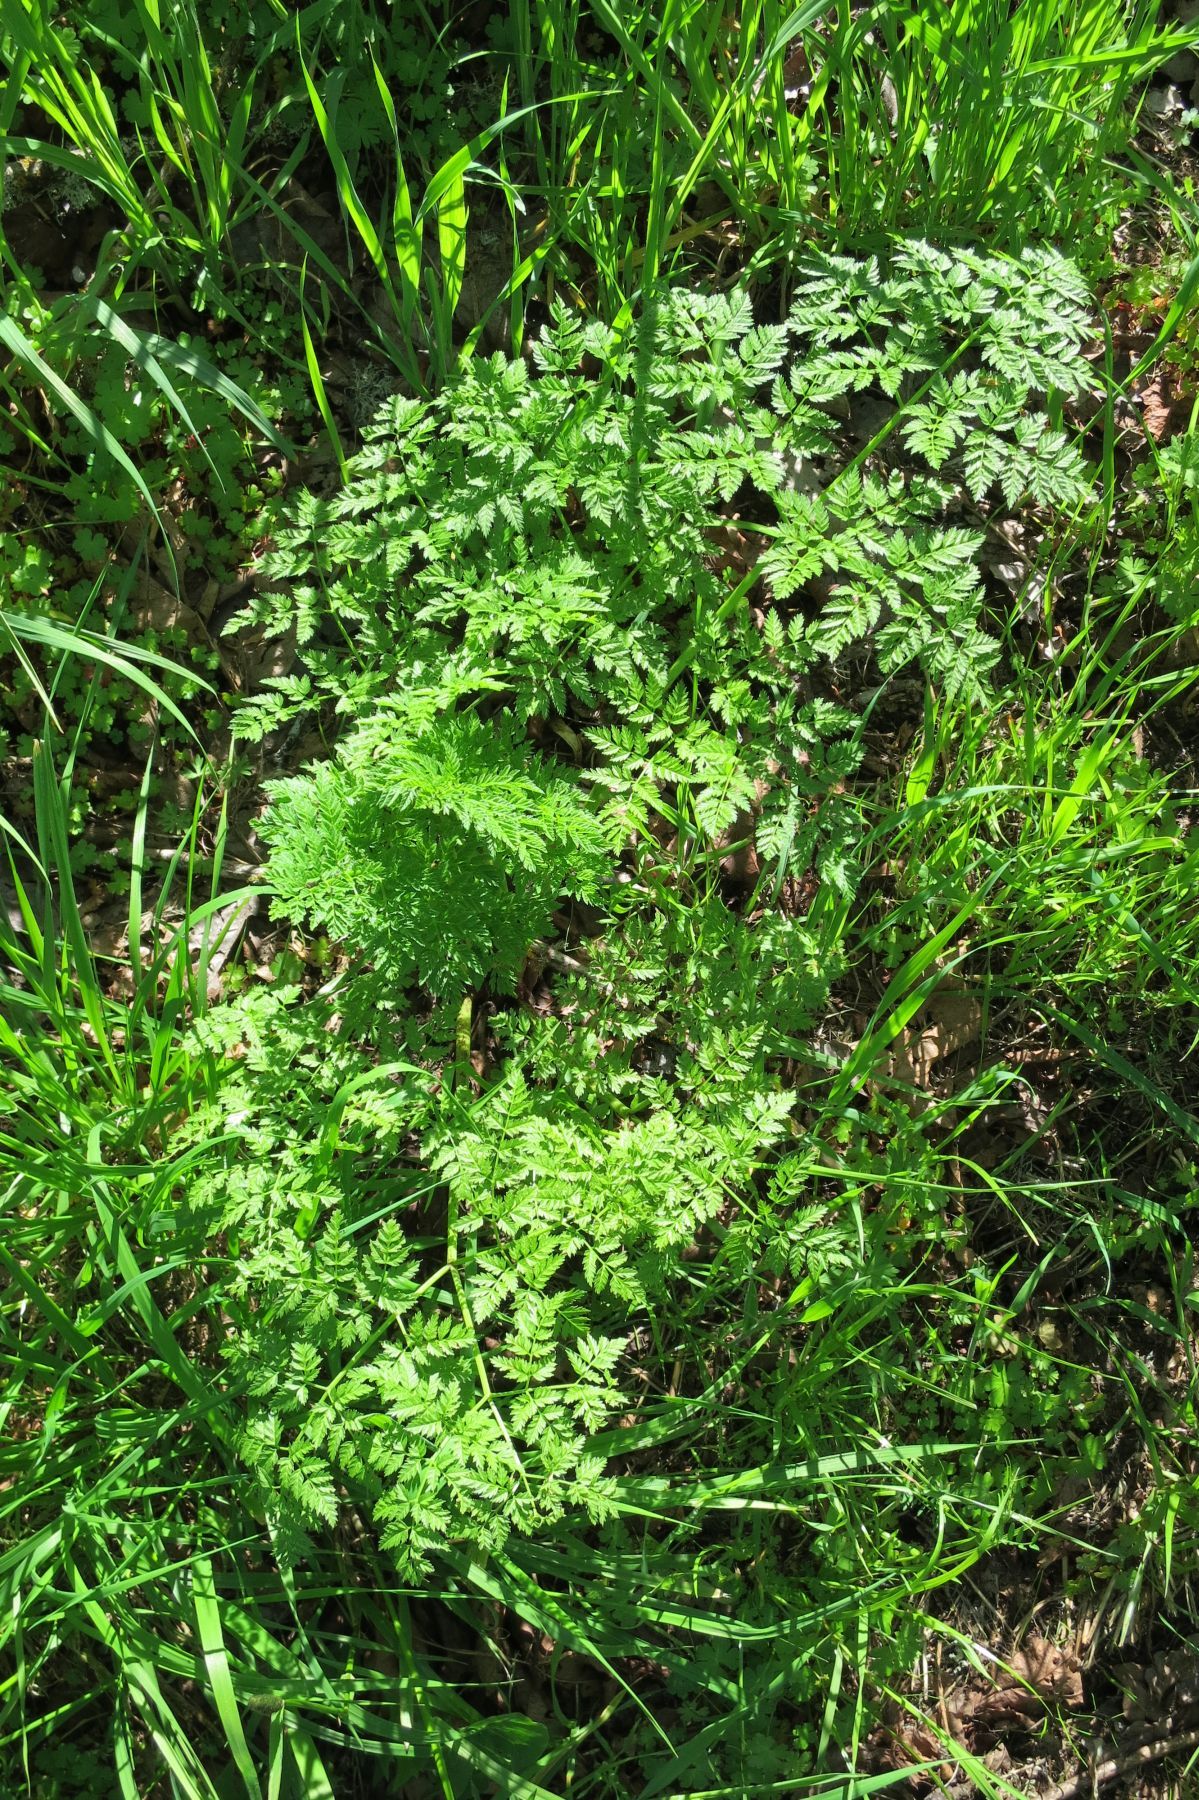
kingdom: Plantae
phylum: Tracheophyta
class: Magnoliopsida
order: Apiales
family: Apiaceae
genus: Conium
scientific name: Conium maculatum
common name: Hemlock
